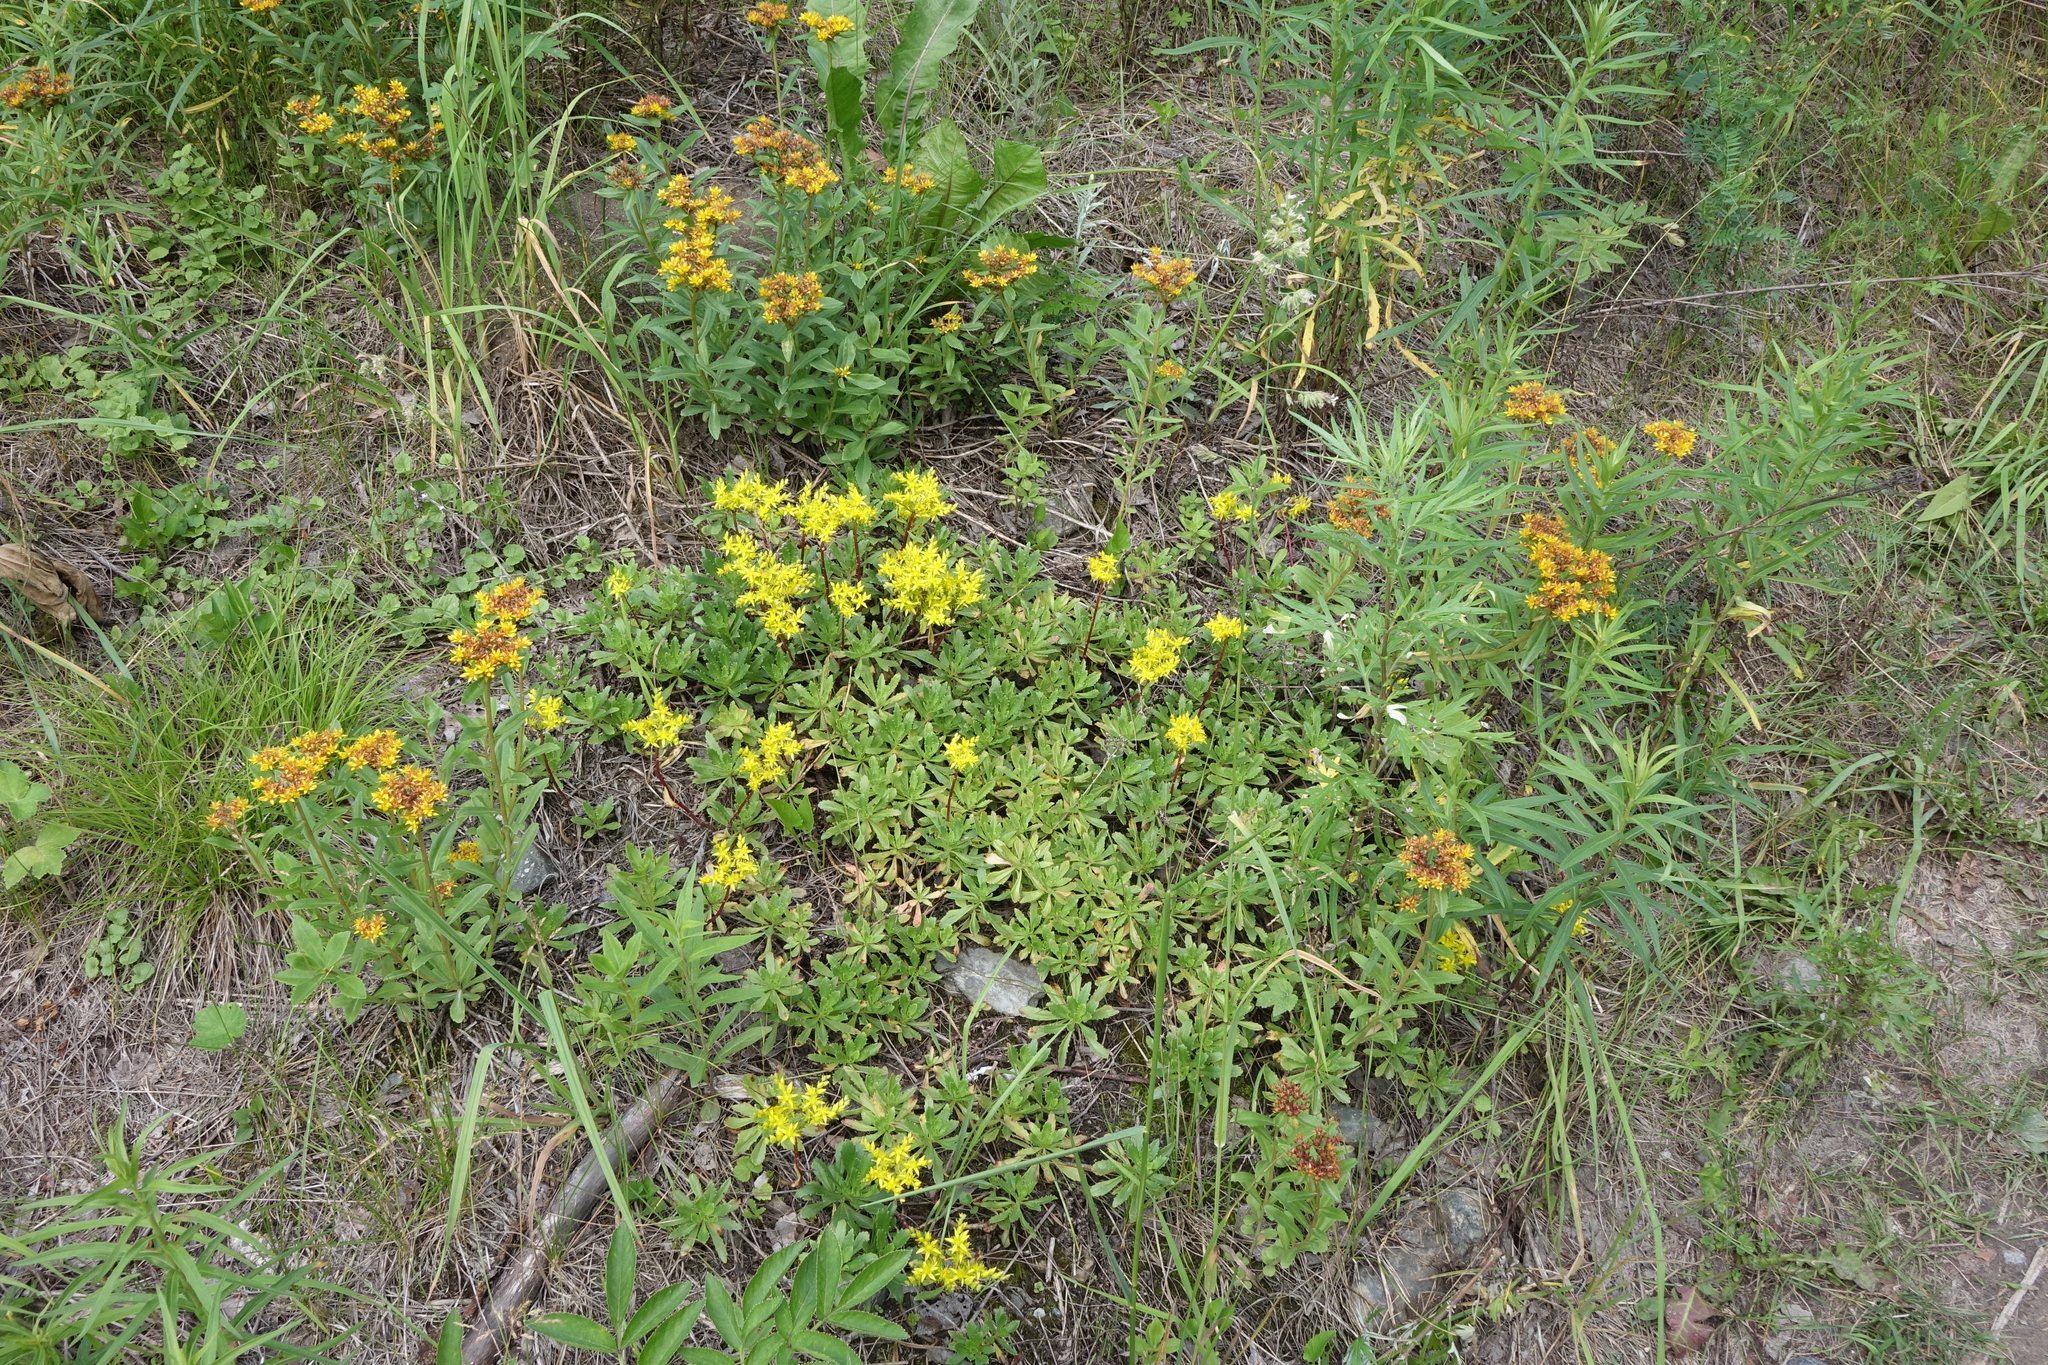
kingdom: Plantae
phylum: Tracheophyta
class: Magnoliopsida
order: Saxifragales
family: Crassulaceae
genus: Phedimus
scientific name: Phedimus hybridus
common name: Hybrid stonecrop
